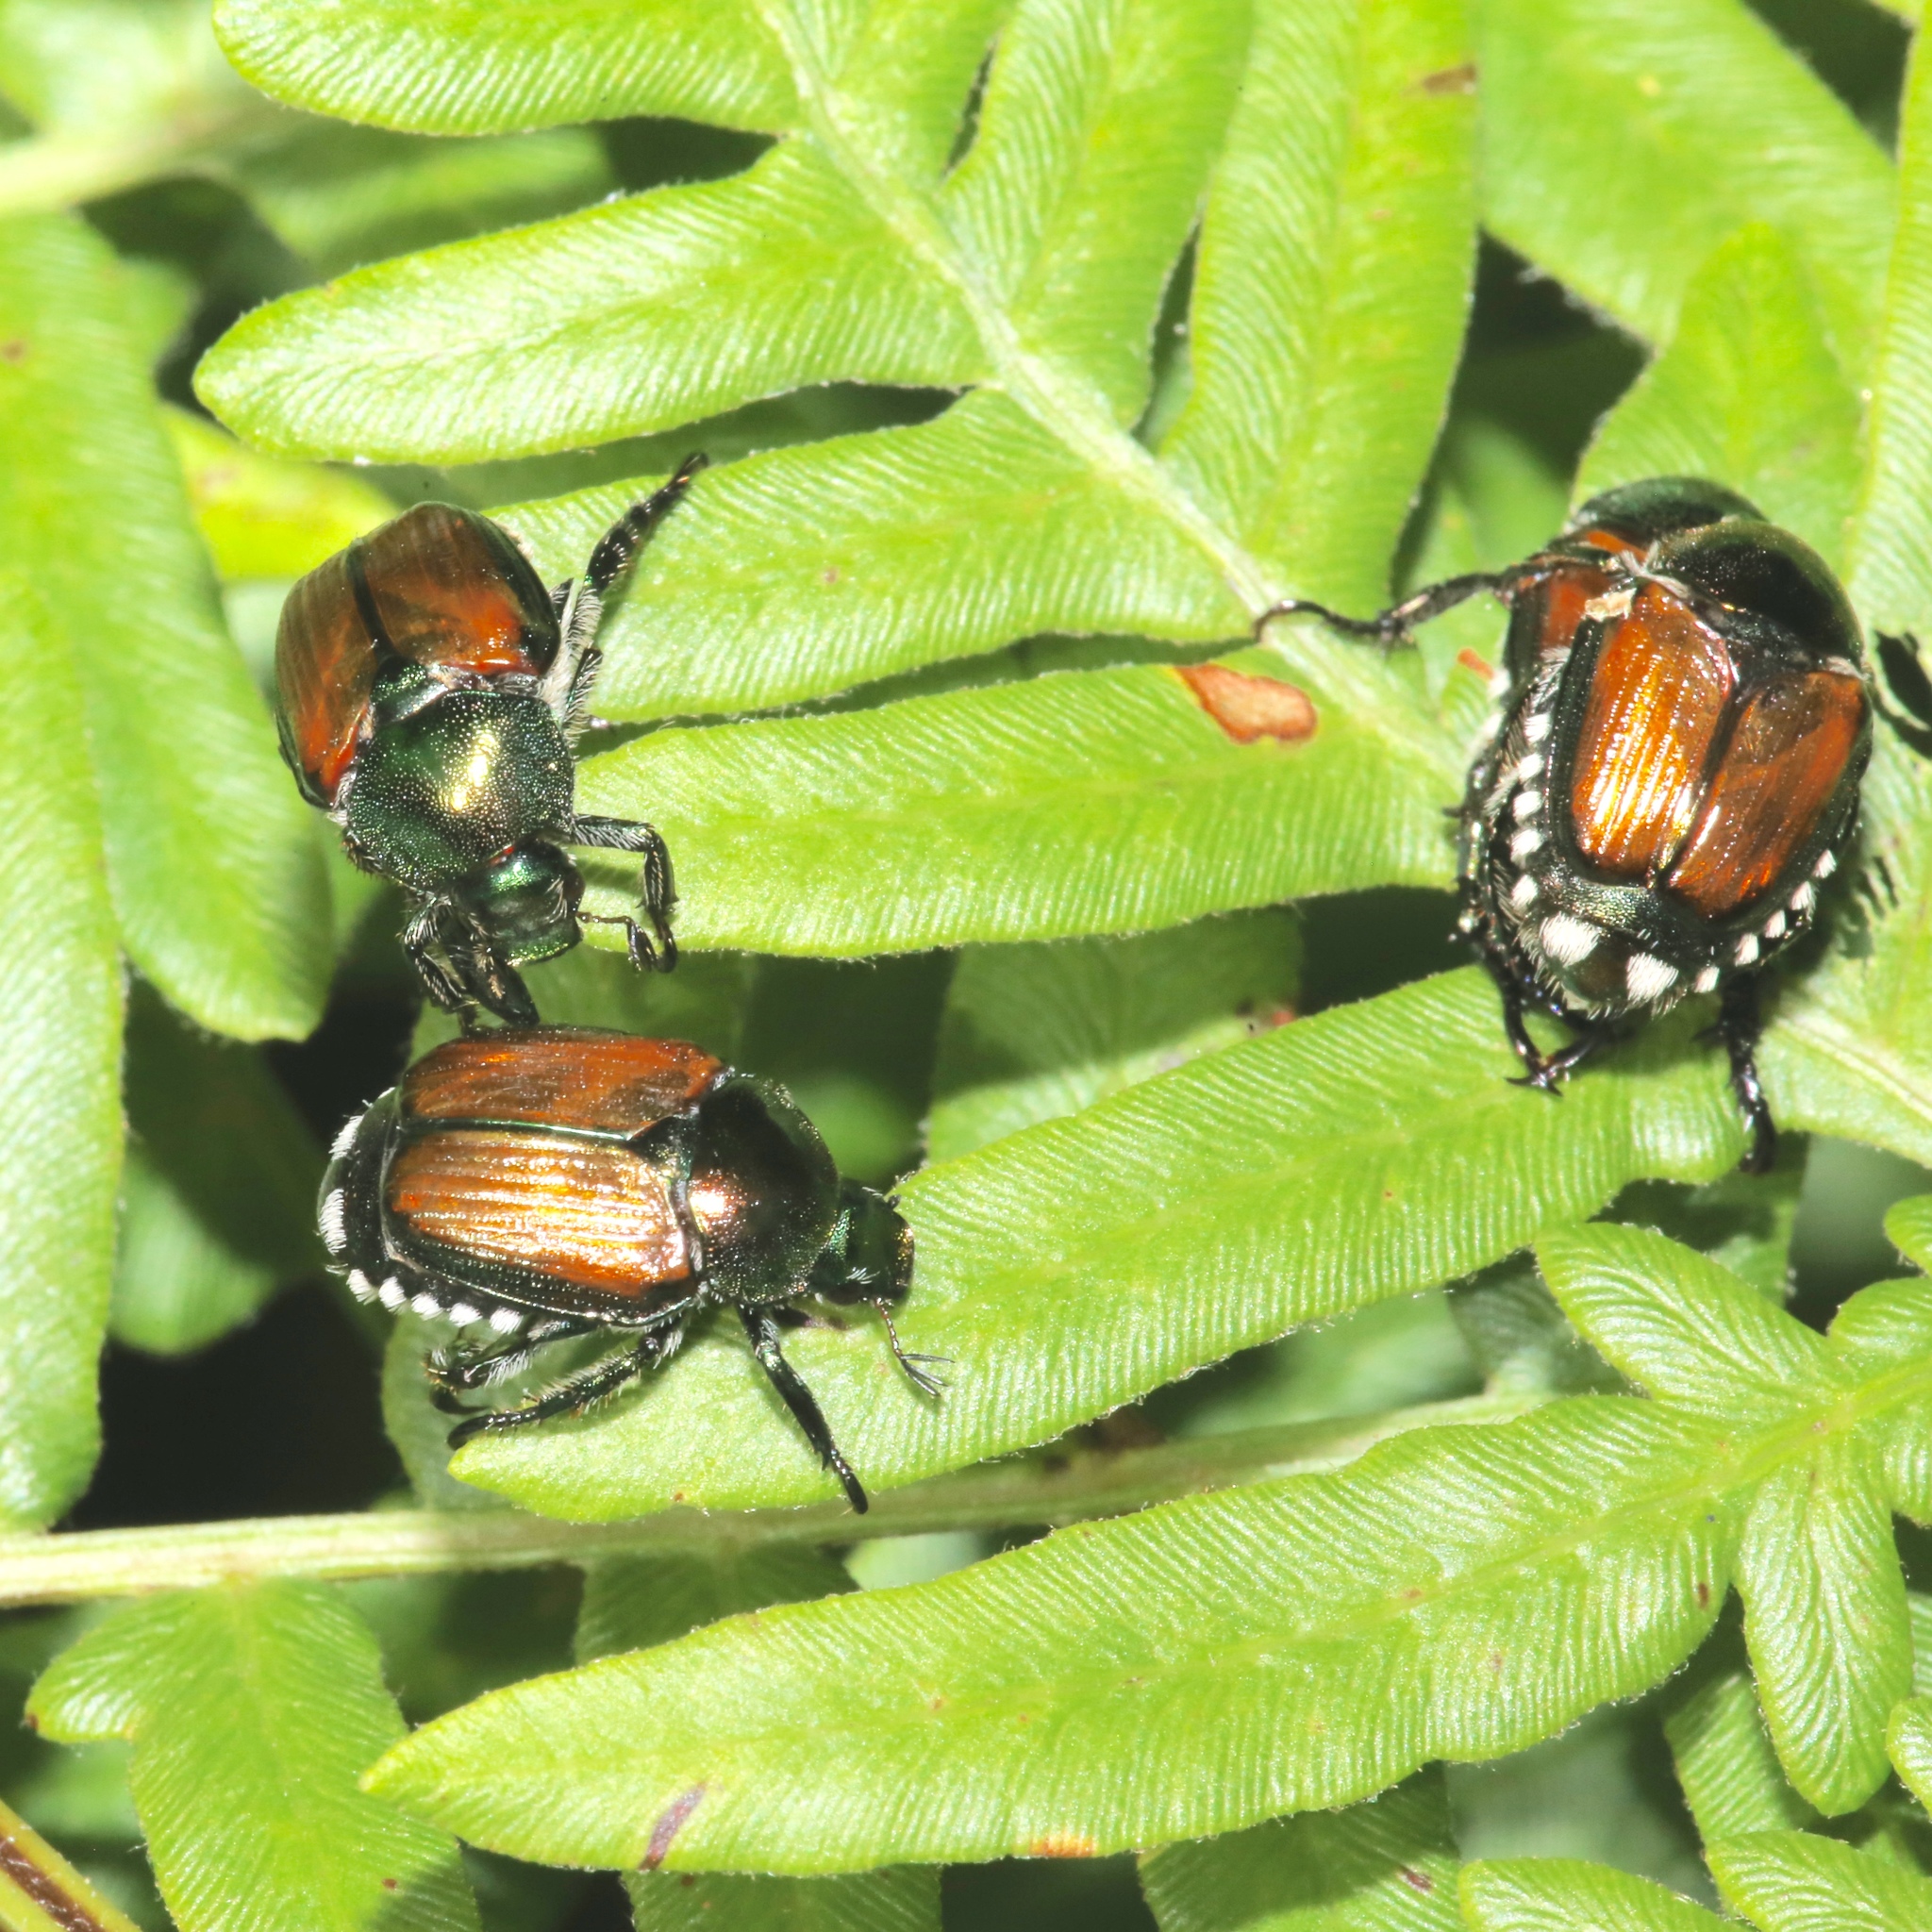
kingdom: Animalia
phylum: Arthropoda
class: Insecta
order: Coleoptera
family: Scarabaeidae
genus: Popillia
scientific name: Popillia japonica
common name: Japanese beetle
